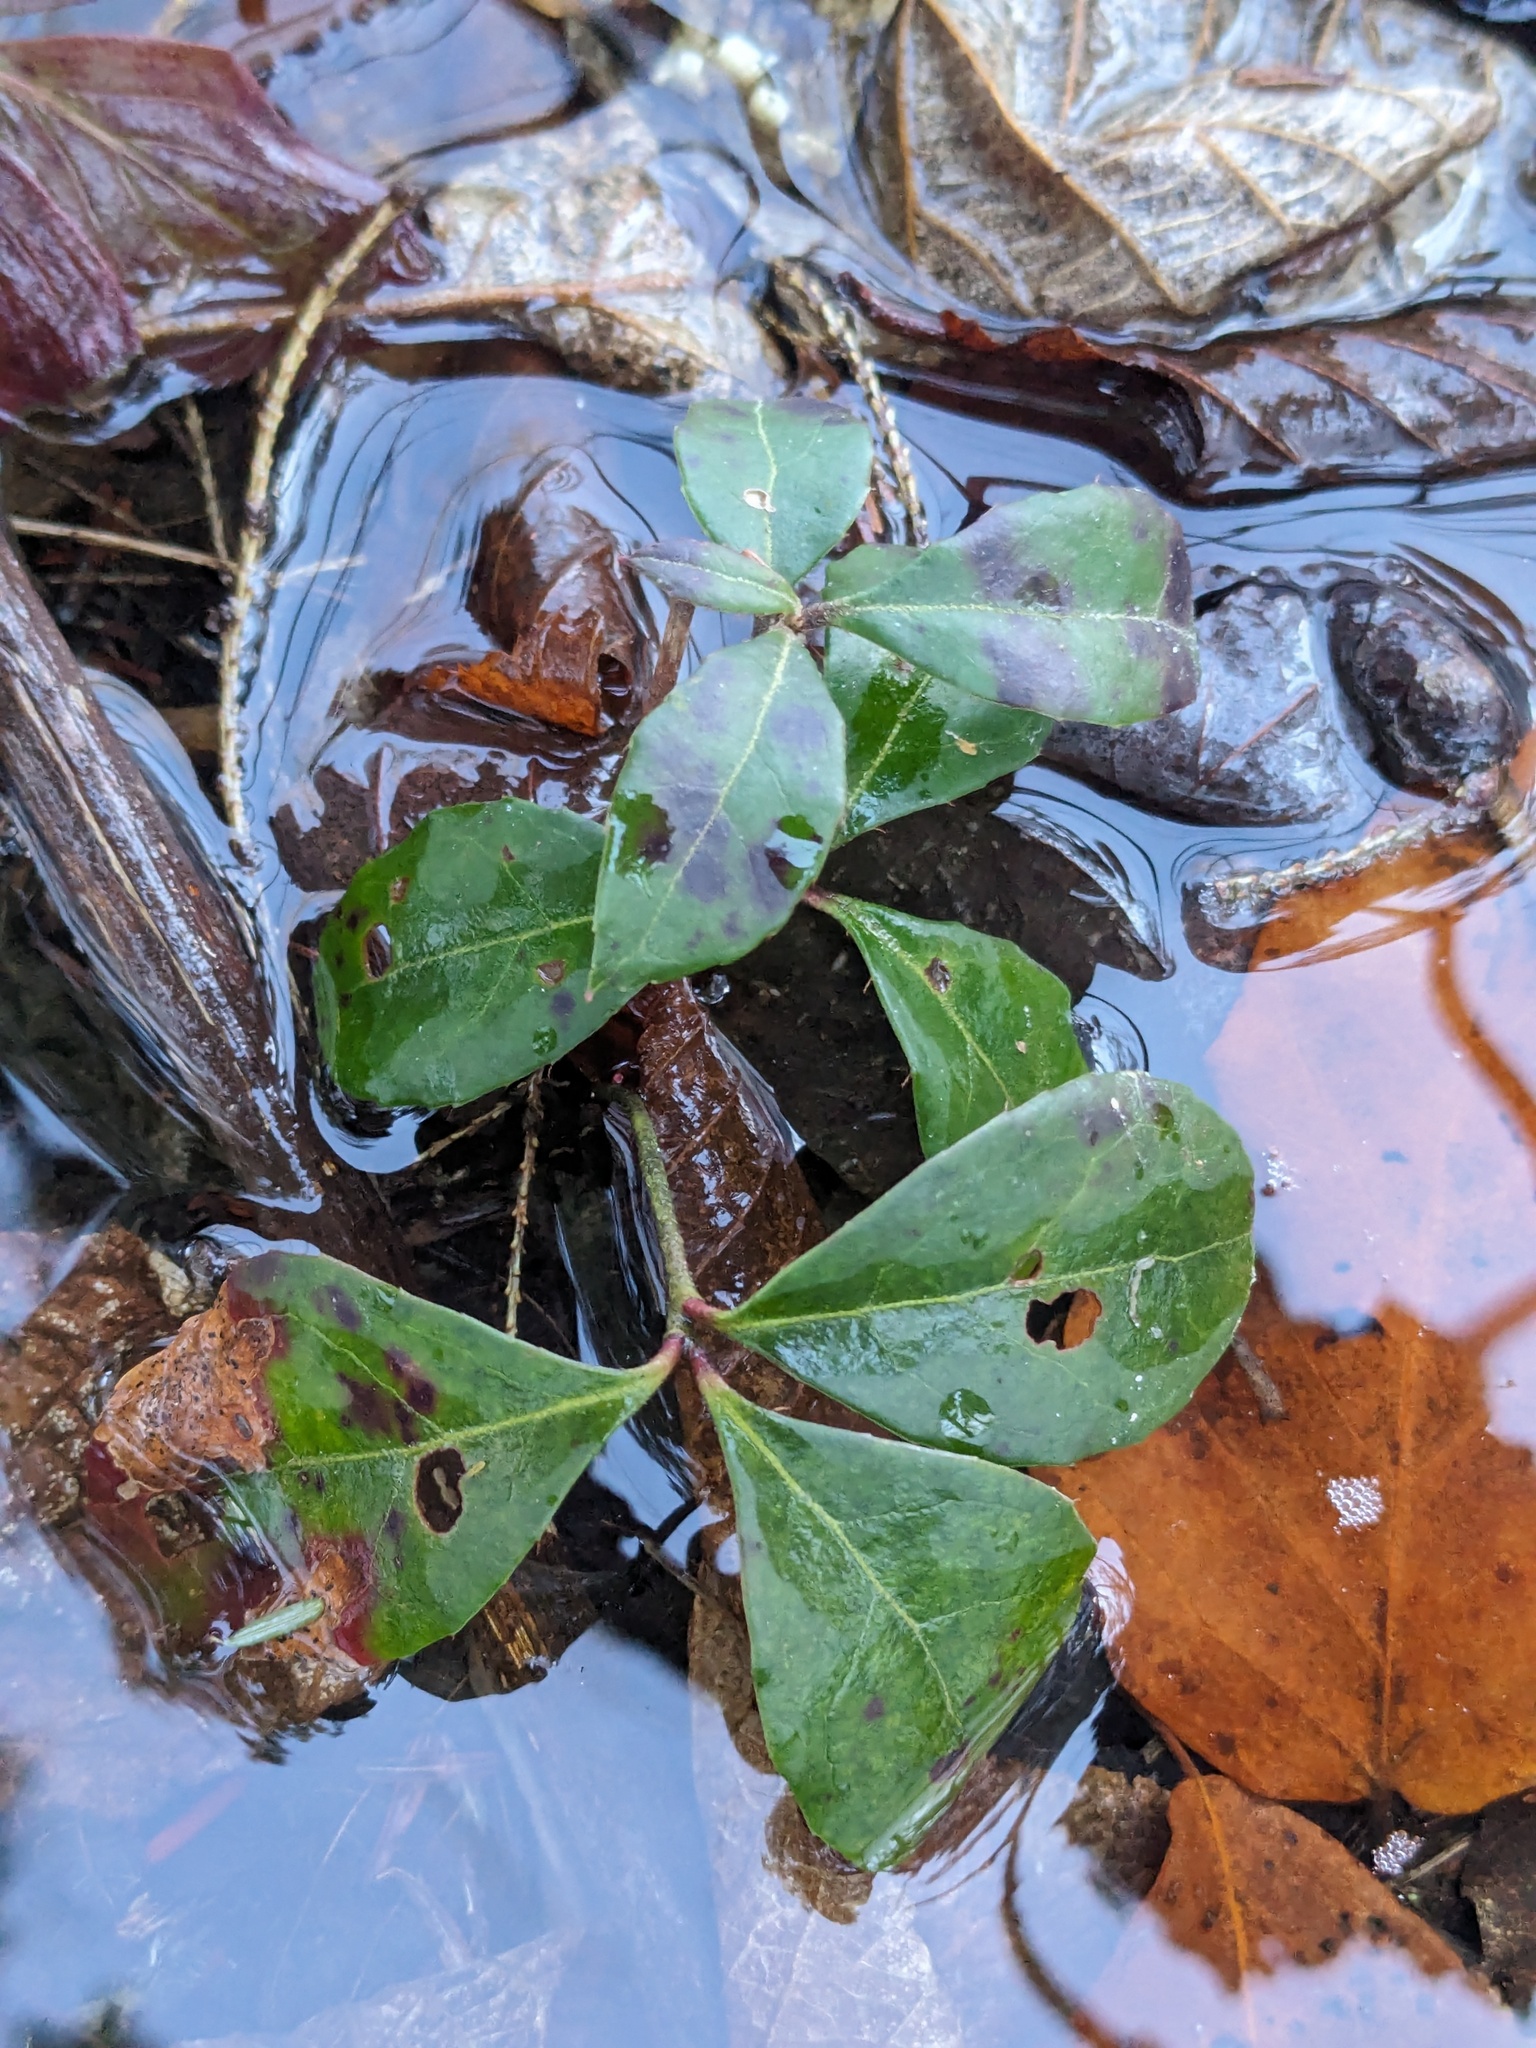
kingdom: Plantae
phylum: Tracheophyta
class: Magnoliopsida
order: Ericales
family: Ericaceae
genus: Gaultheria
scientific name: Gaultheria procumbens
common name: Checkerberry
